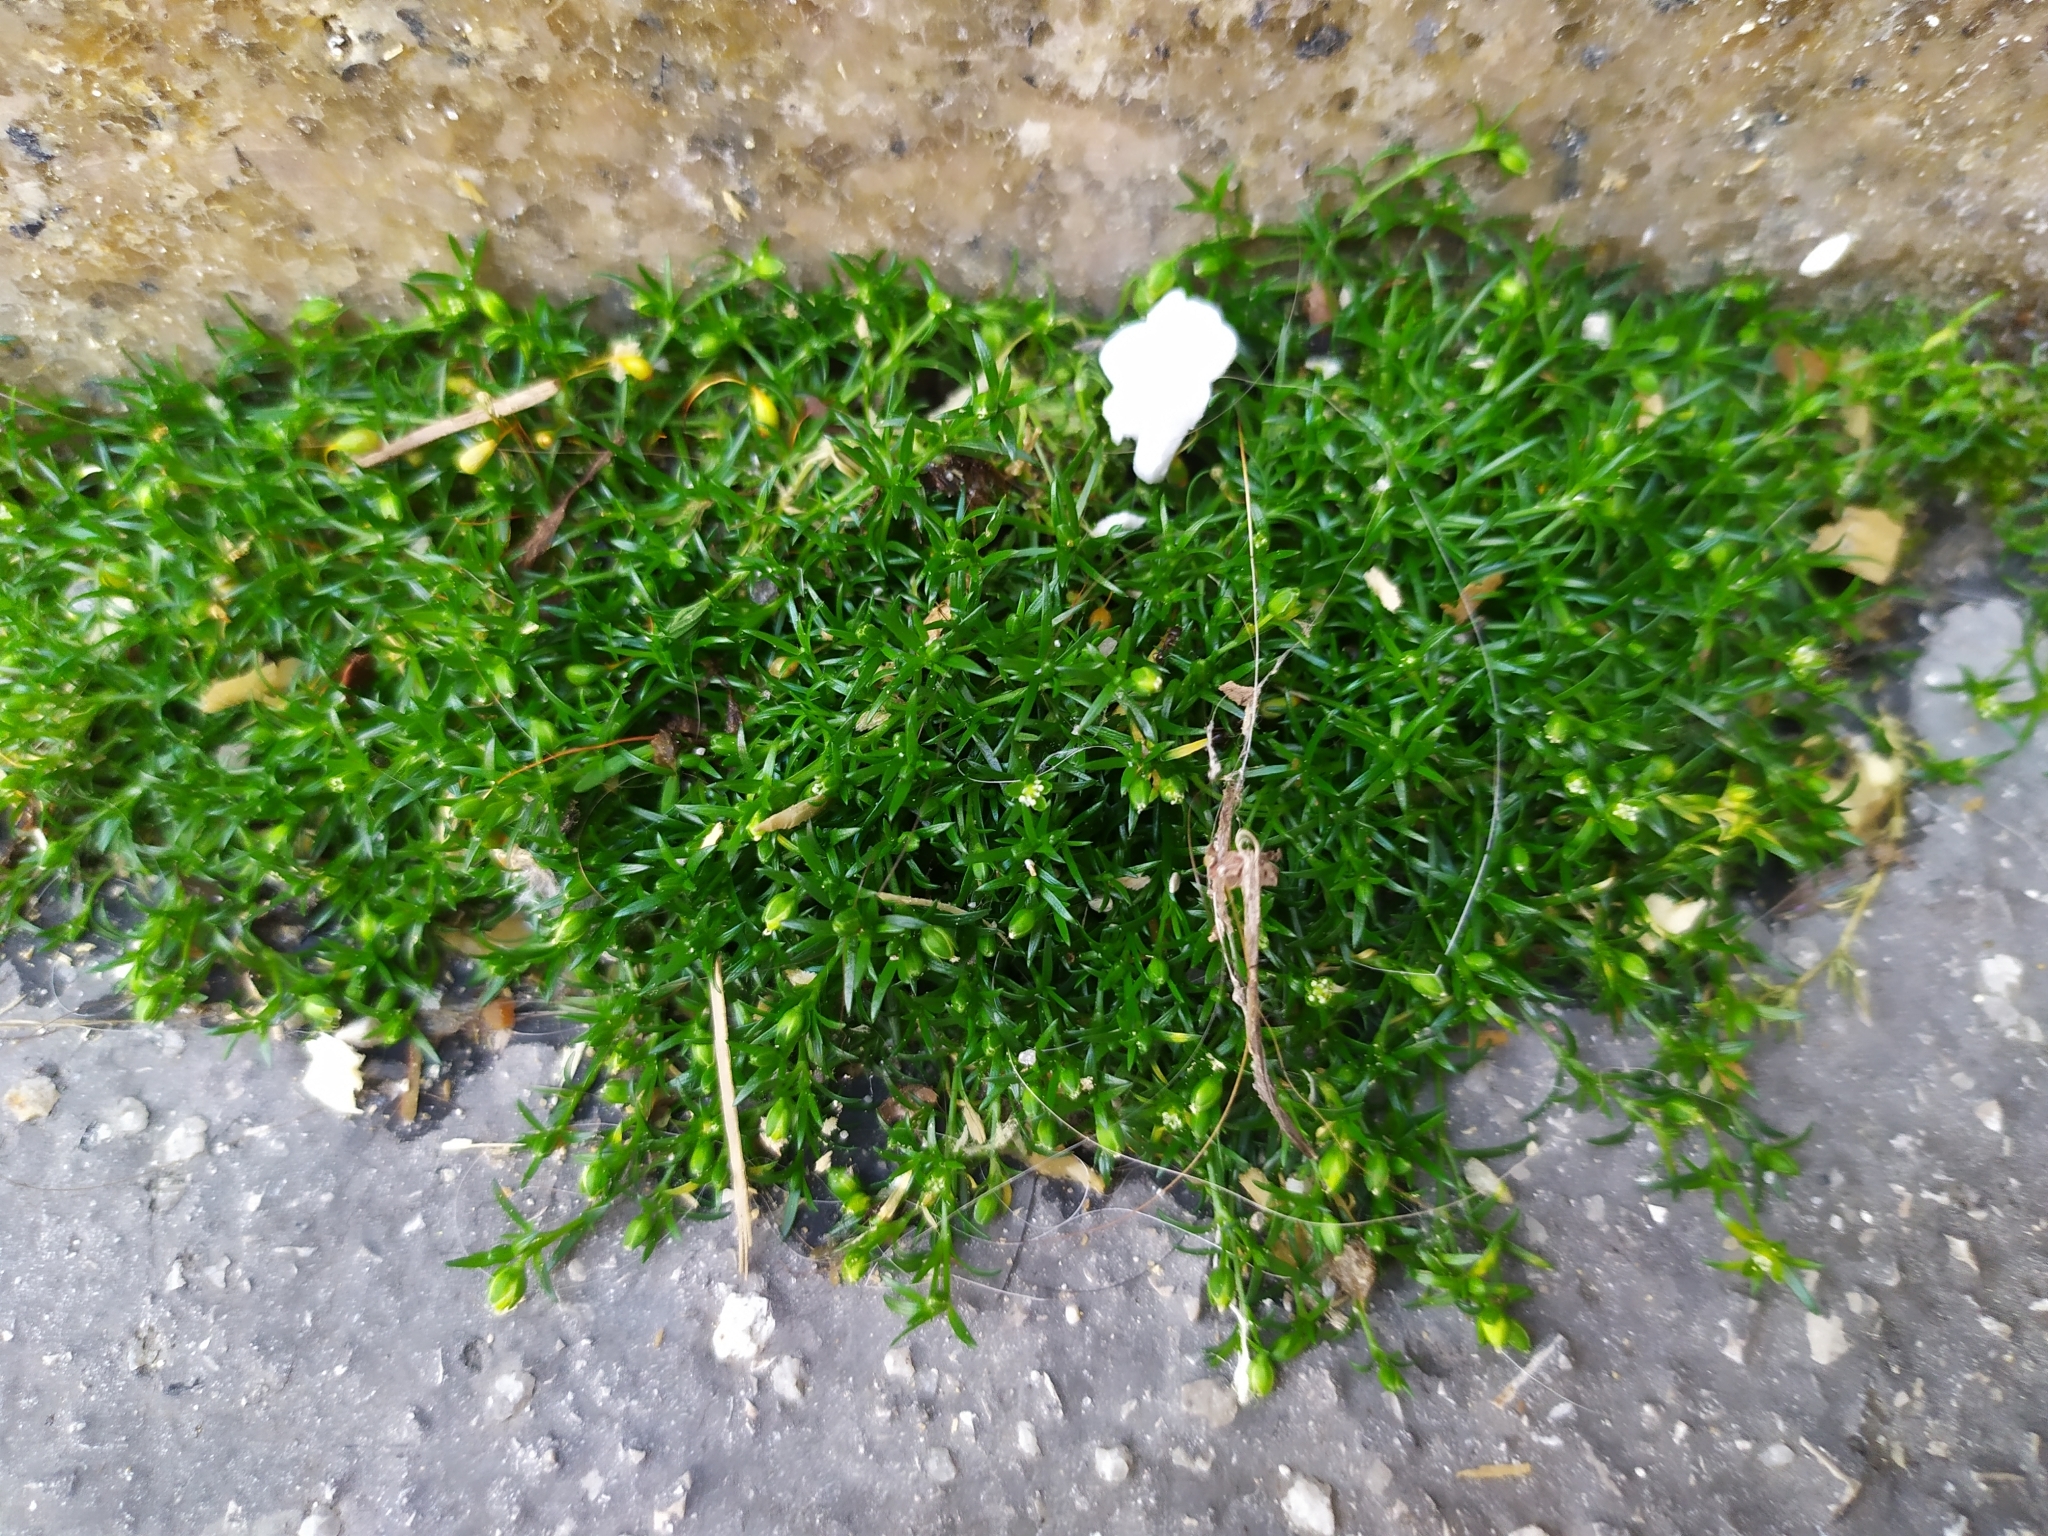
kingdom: Plantae
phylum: Tracheophyta
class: Magnoliopsida
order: Caryophyllales
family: Caryophyllaceae
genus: Sagina
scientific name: Sagina procumbens
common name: Procumbent pearlwort
